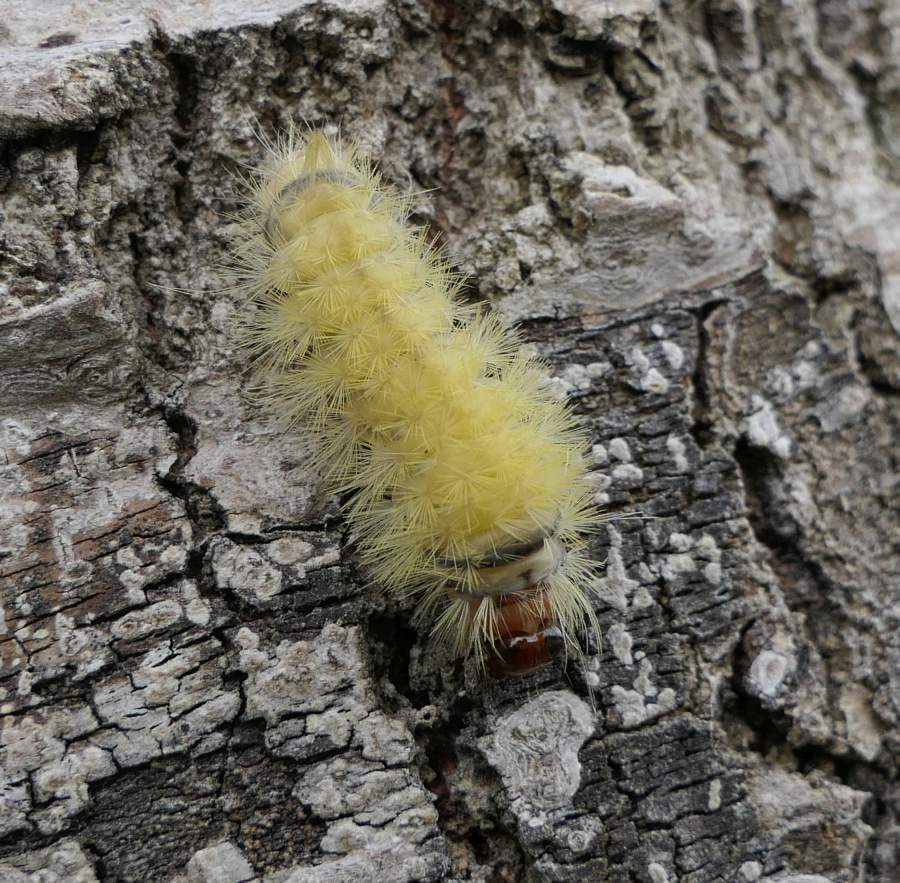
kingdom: Animalia
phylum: Arthropoda
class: Insecta
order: Lepidoptera
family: Erebidae
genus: Halysidota
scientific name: Halysidota tessellaris
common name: Banded tussock moth
